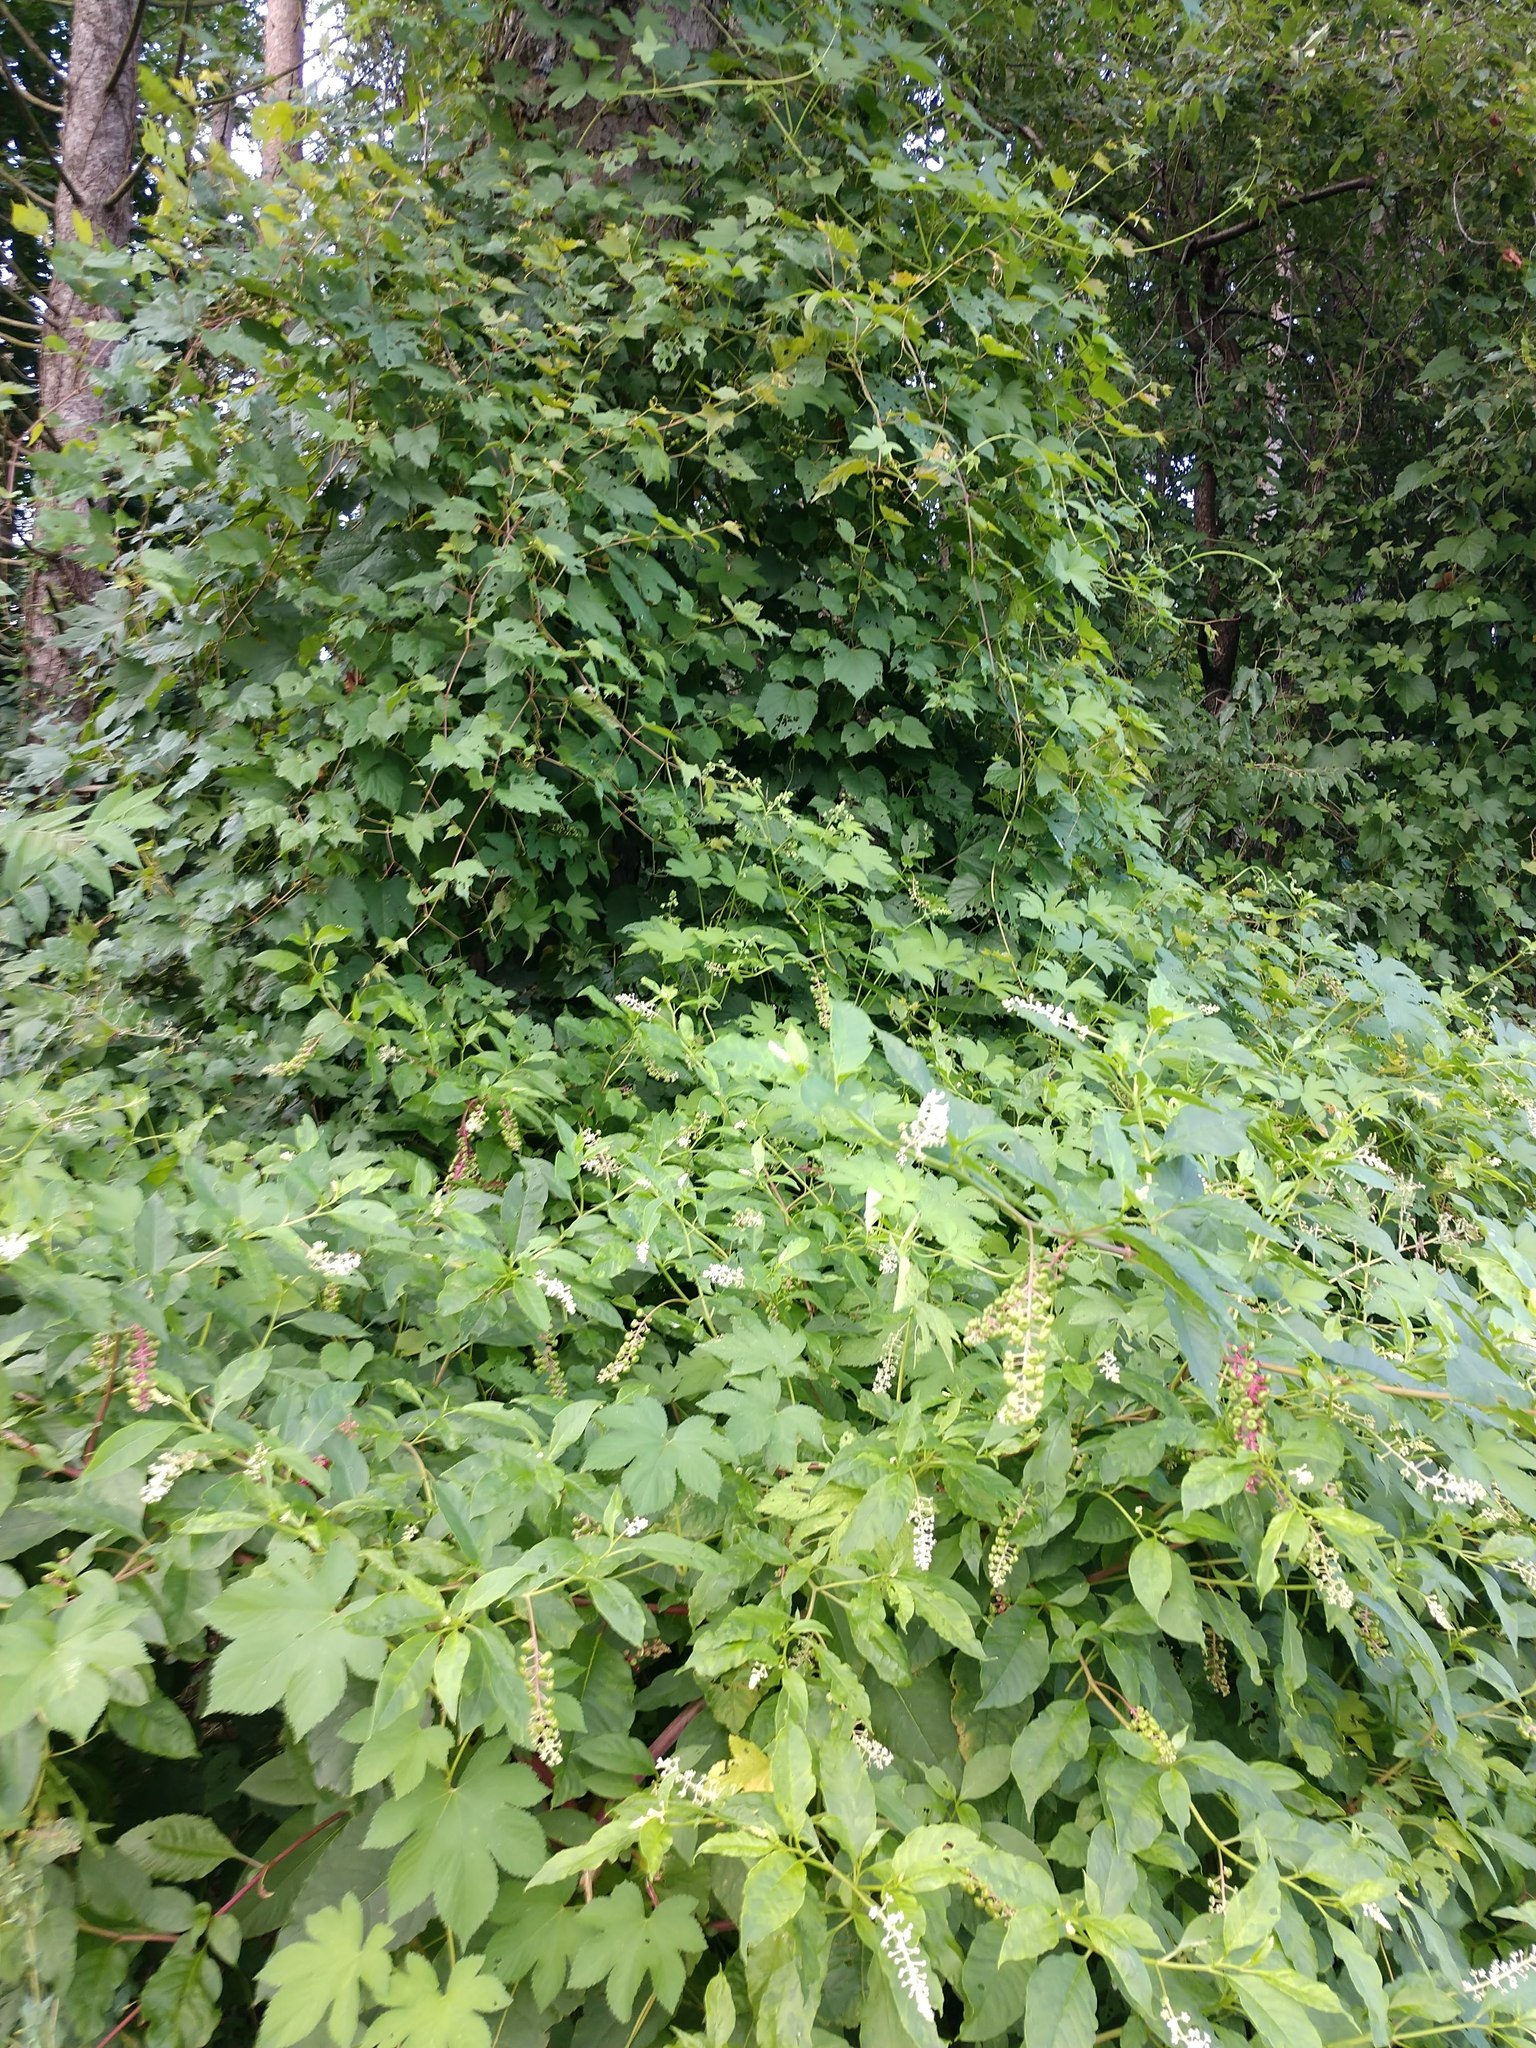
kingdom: Plantae
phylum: Tracheophyta
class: Magnoliopsida
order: Rosales
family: Cannabaceae
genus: Humulus
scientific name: Humulus scandens
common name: Japanese hop
